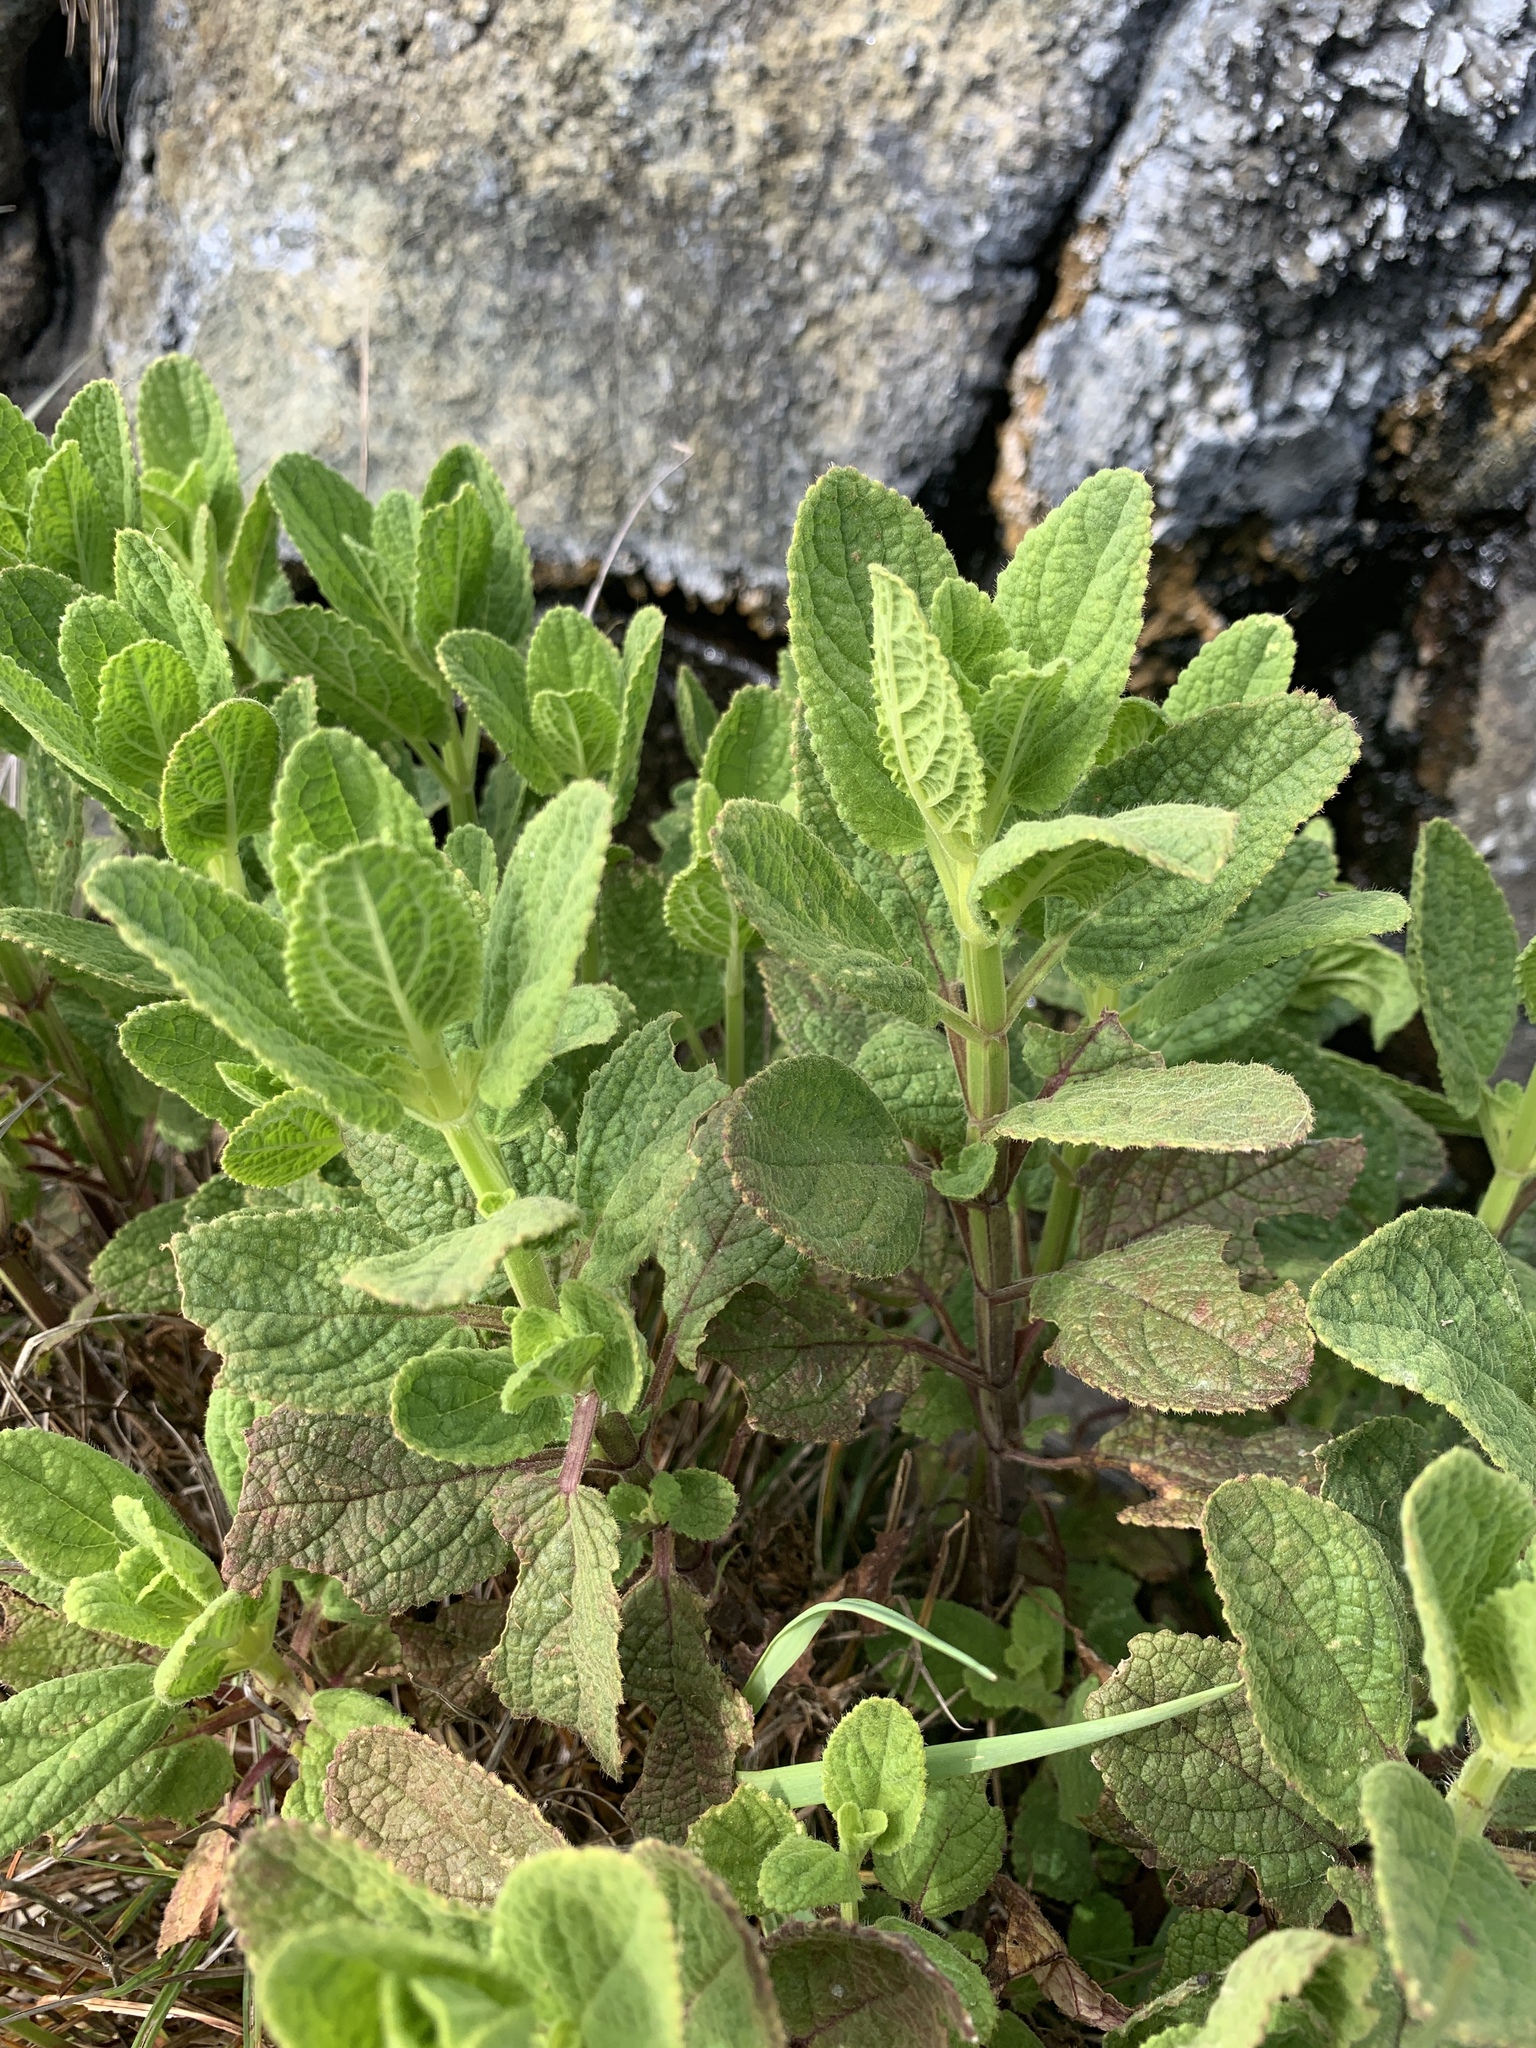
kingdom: Plantae
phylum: Tracheophyta
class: Magnoliopsida
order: Lamiales
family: Lamiaceae
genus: Stachys
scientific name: Stachys pycnantha
